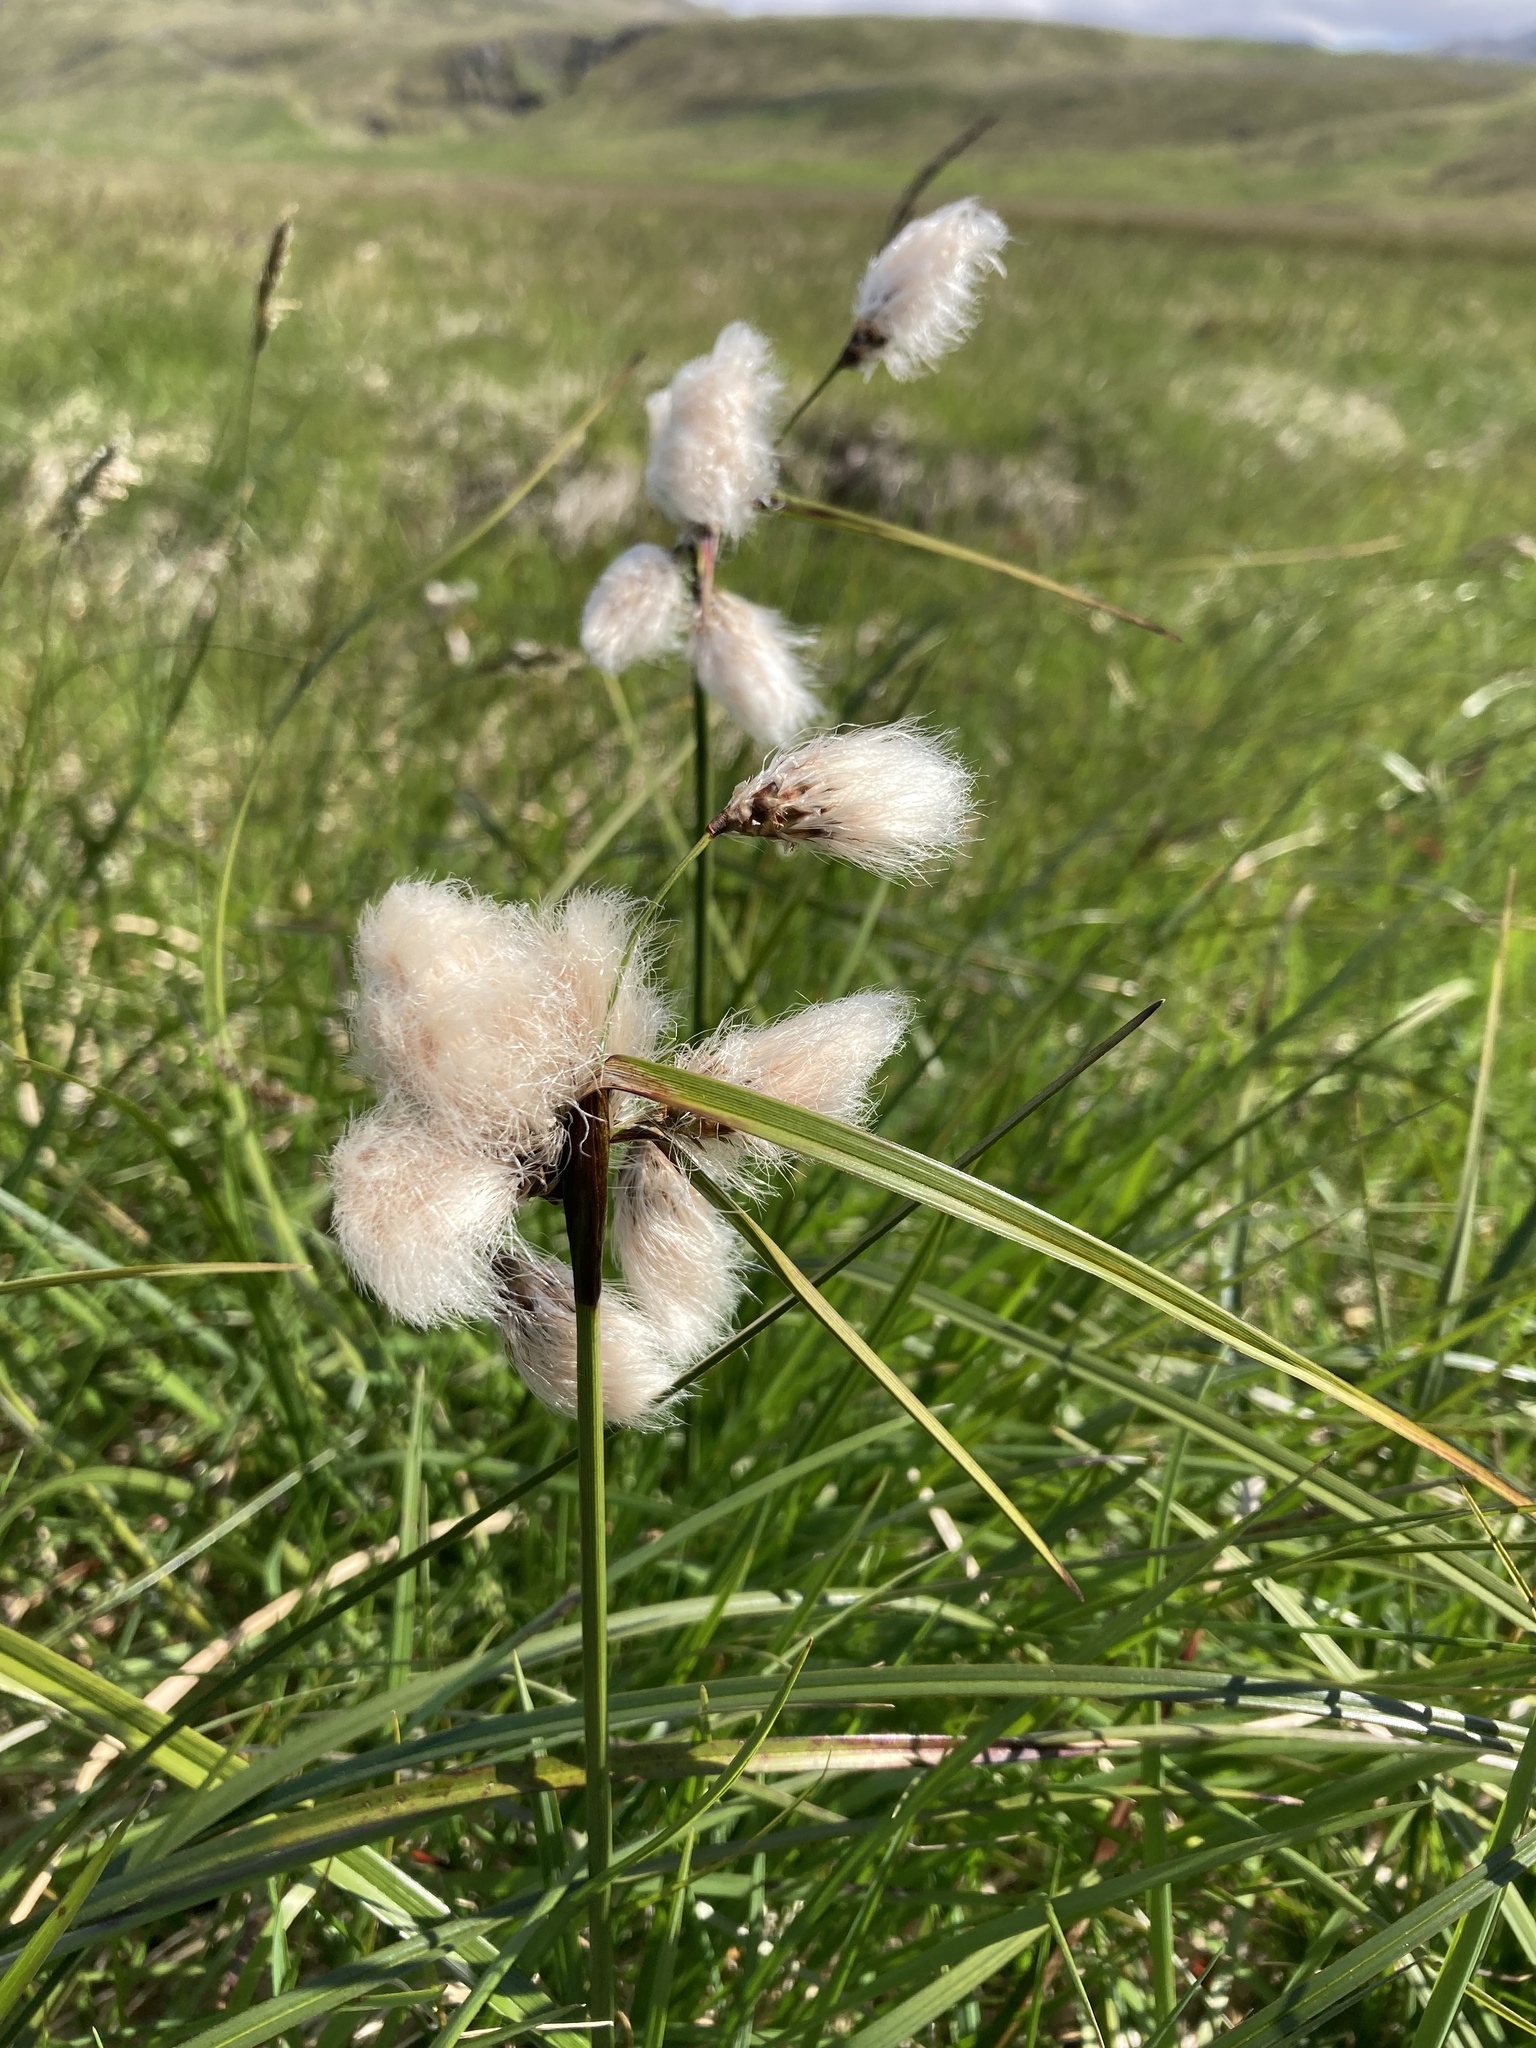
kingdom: Plantae
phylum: Tracheophyta
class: Liliopsida
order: Poales
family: Cyperaceae
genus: Eriophorum
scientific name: Eriophorum angustifolium
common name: Common cottongrass
